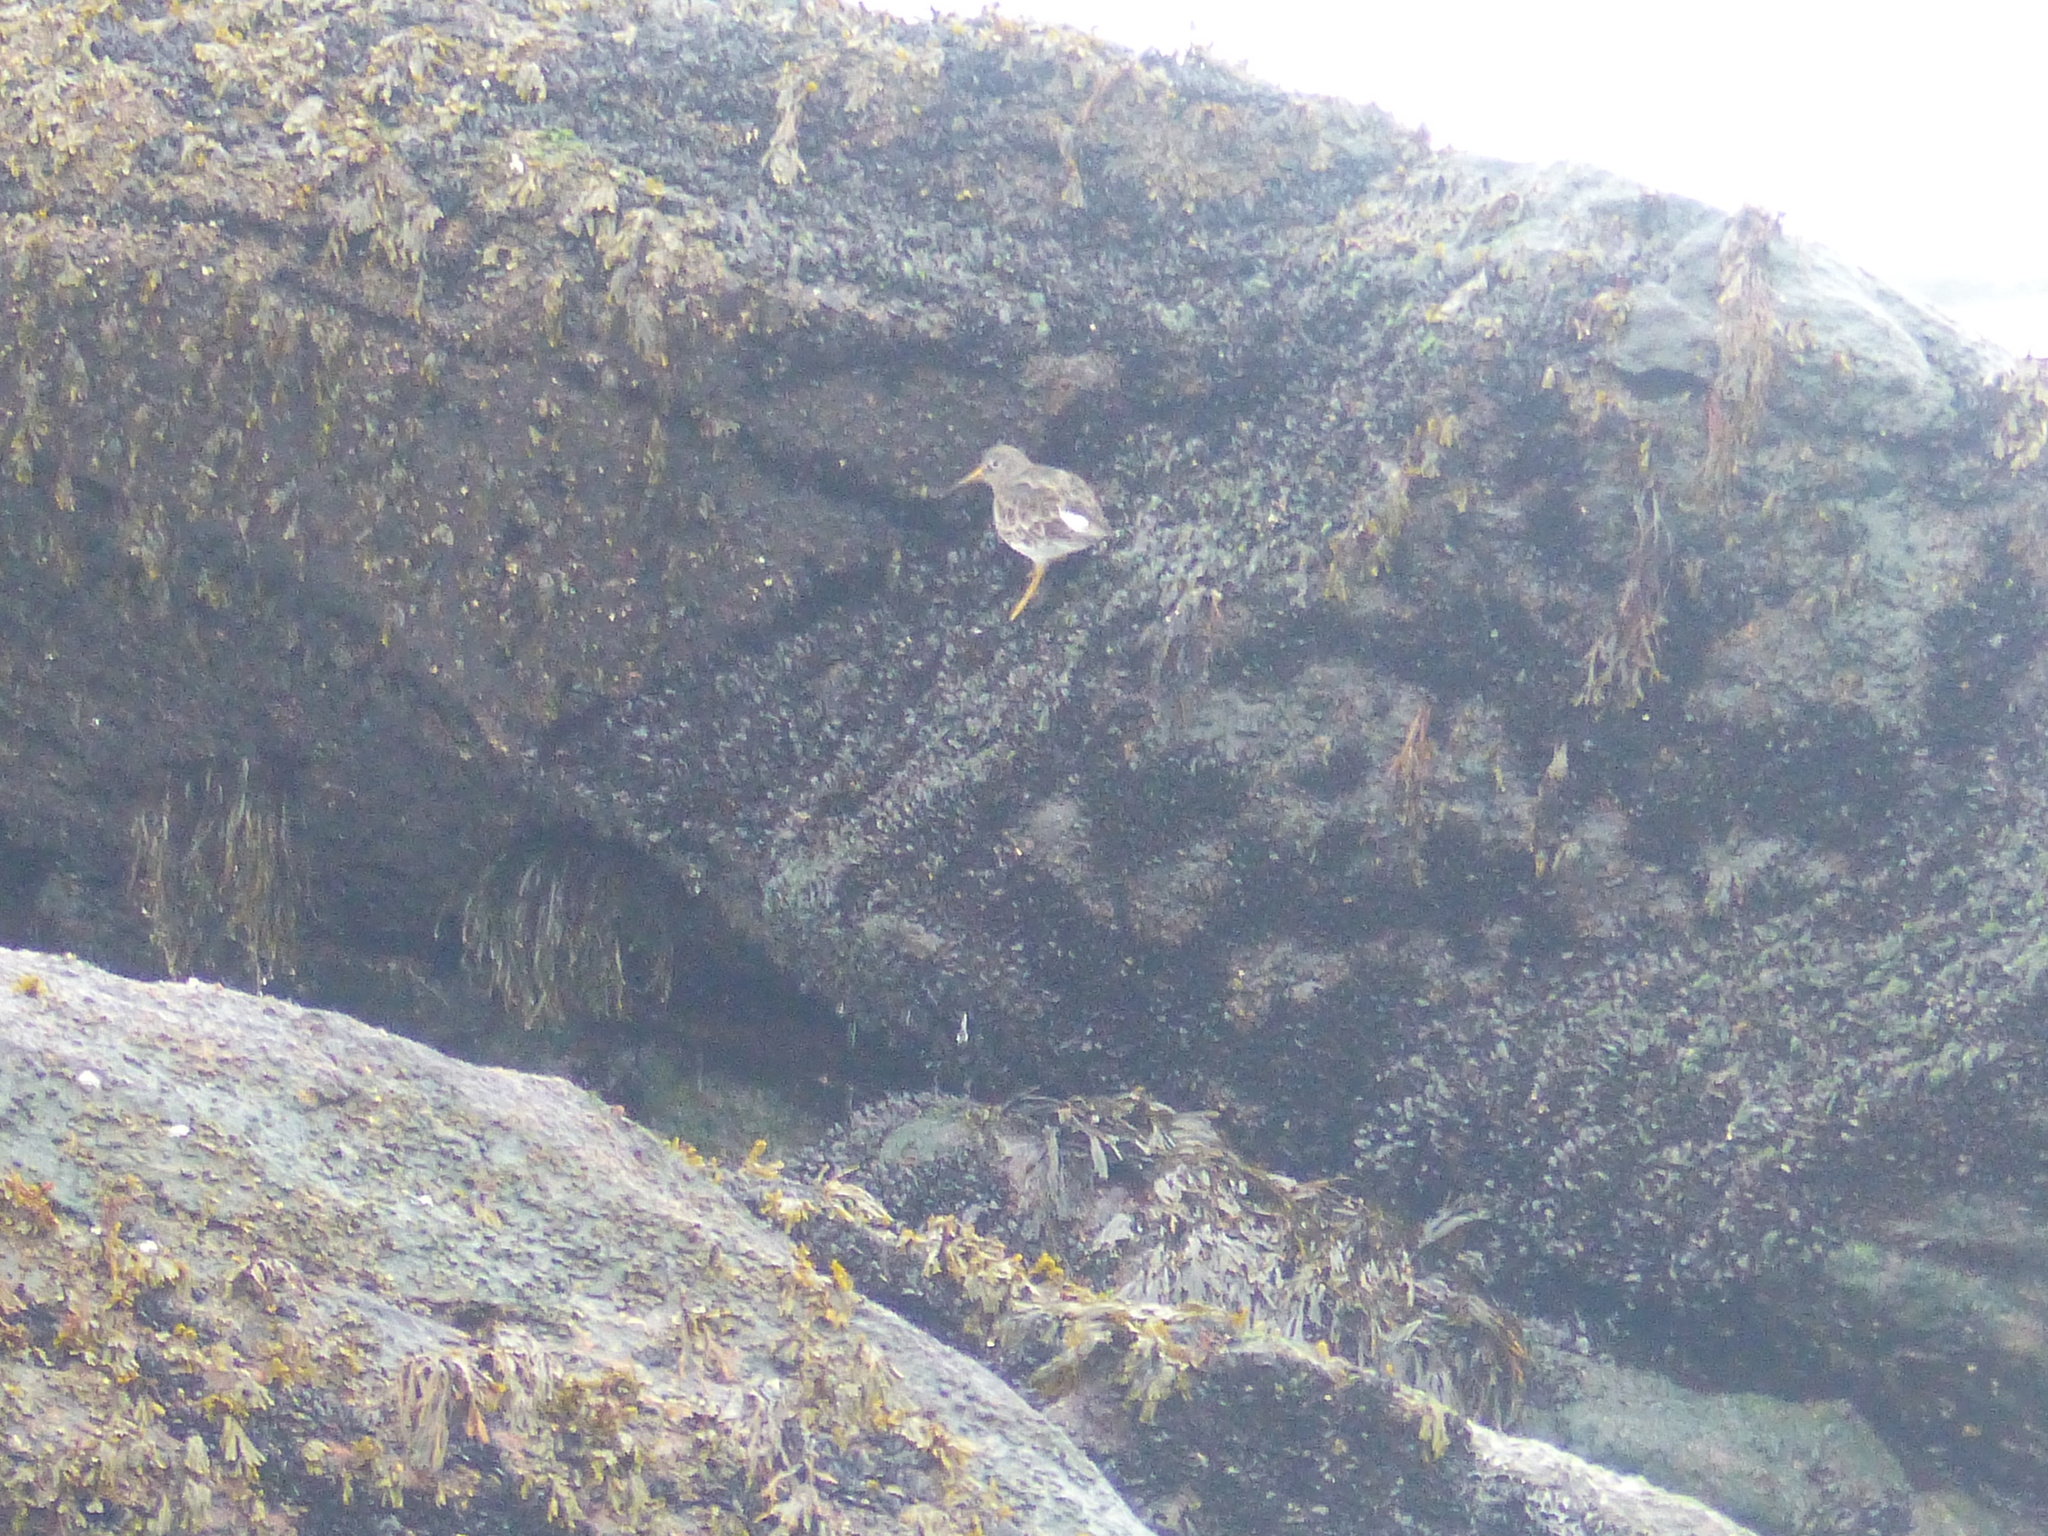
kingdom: Animalia
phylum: Chordata
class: Aves
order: Charadriiformes
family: Scolopacidae
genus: Calidris
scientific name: Calidris maritima
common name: Purple sandpiper
